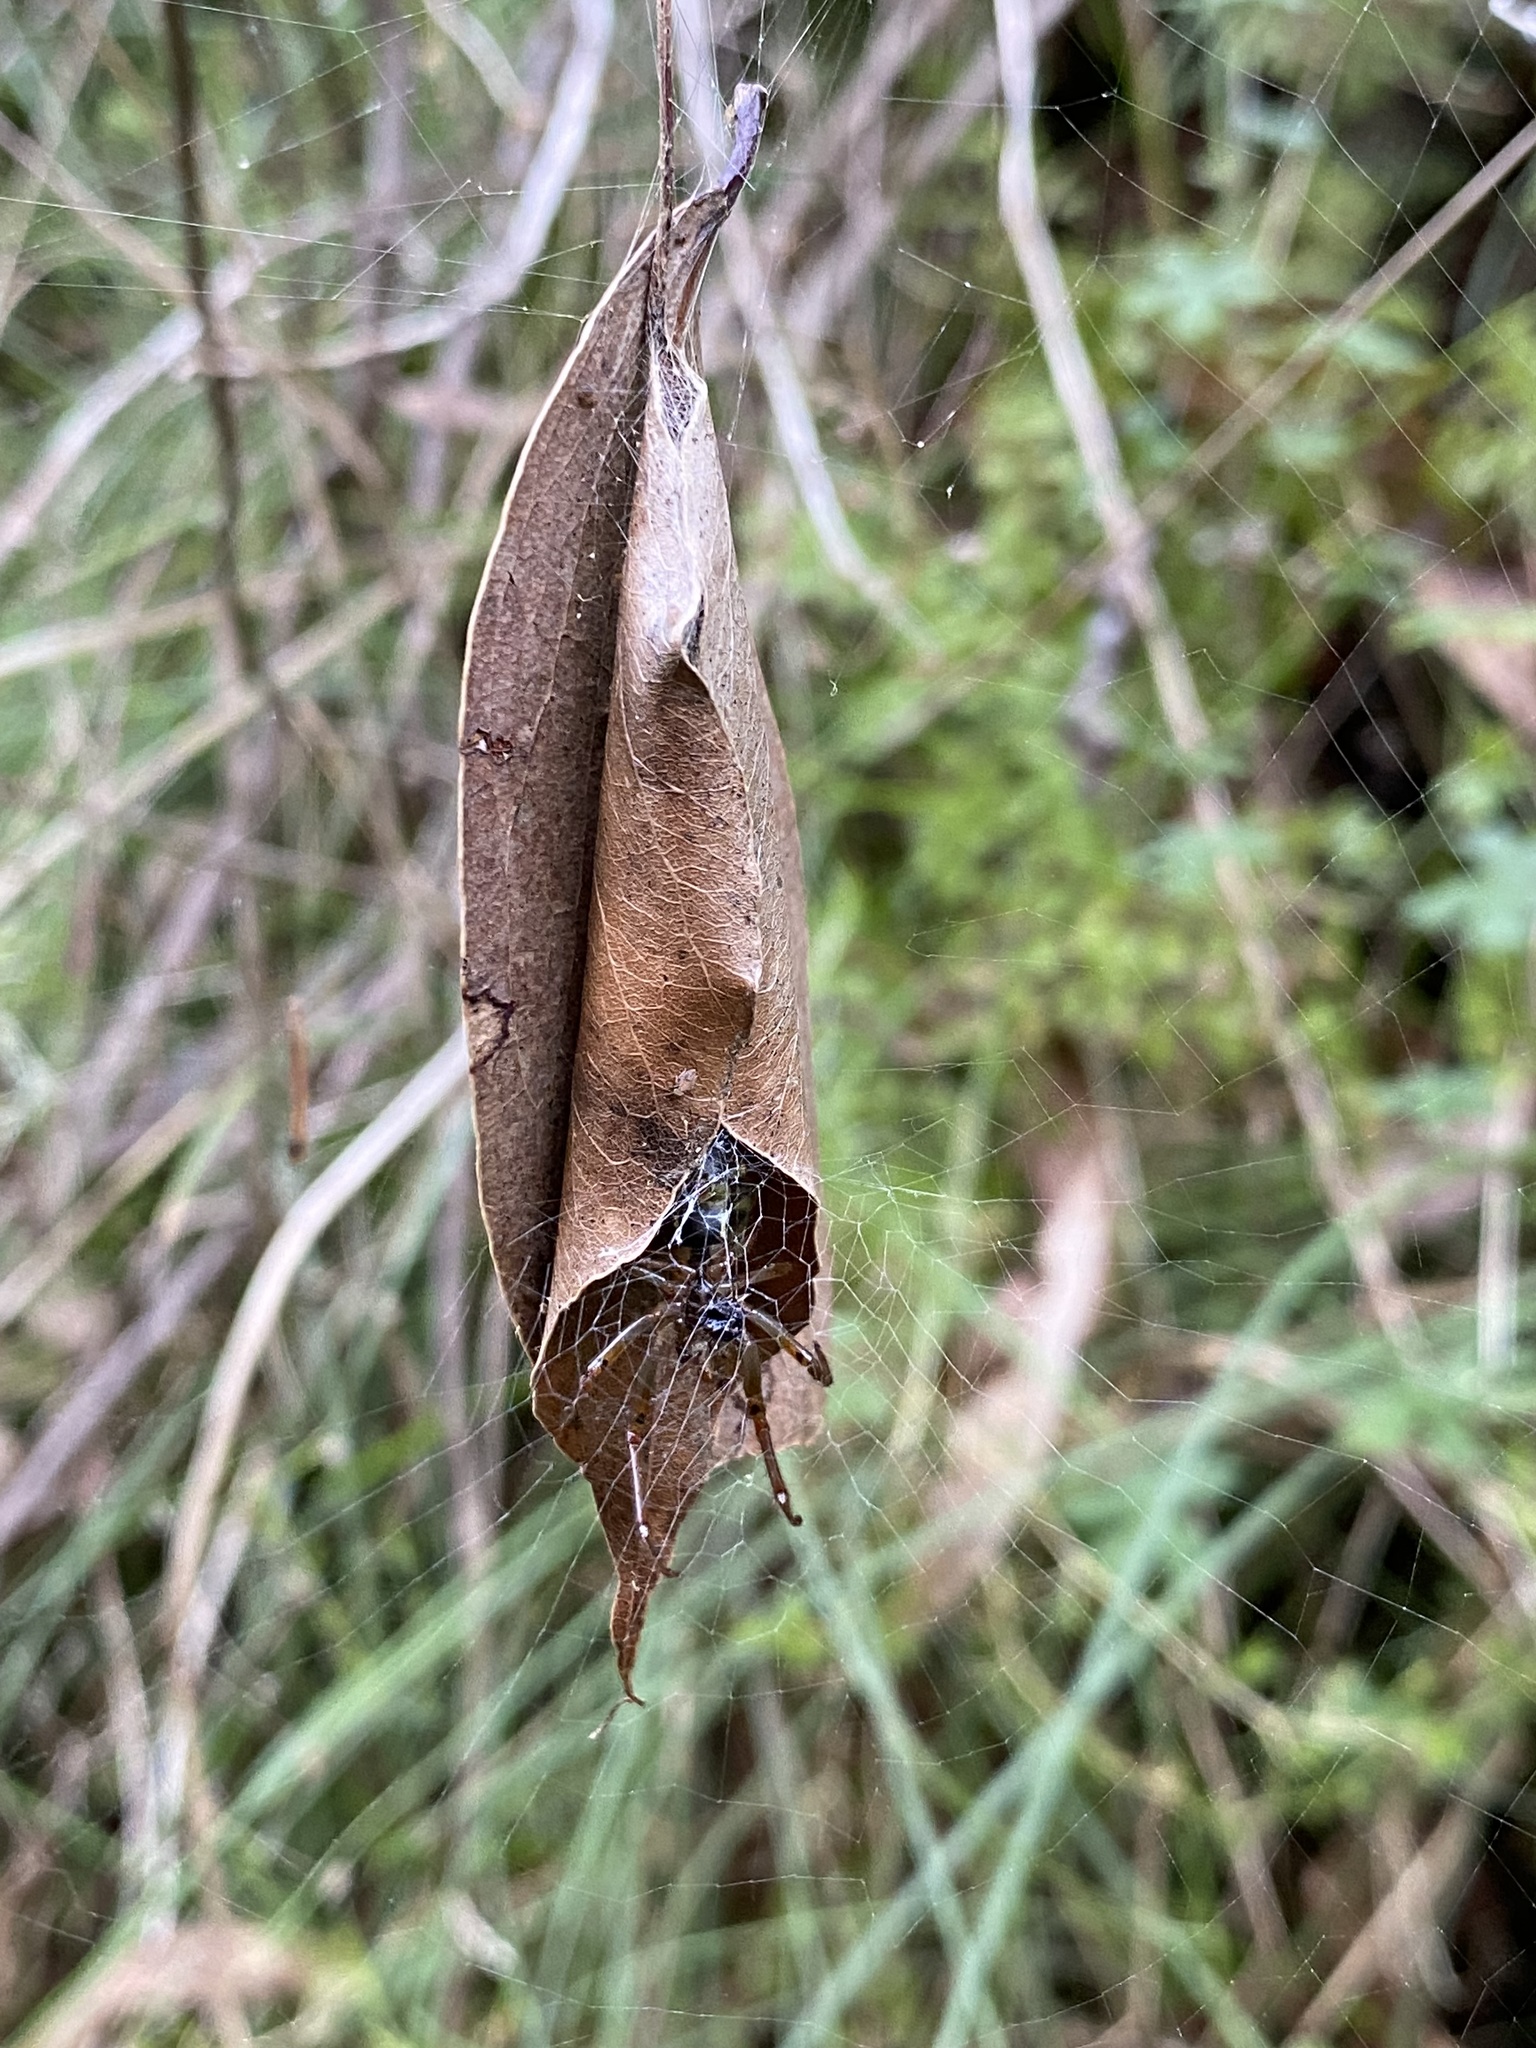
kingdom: Animalia
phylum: Arthropoda
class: Arachnida
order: Araneae
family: Araneidae
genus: Phonognatha
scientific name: Phonognatha graeffei
